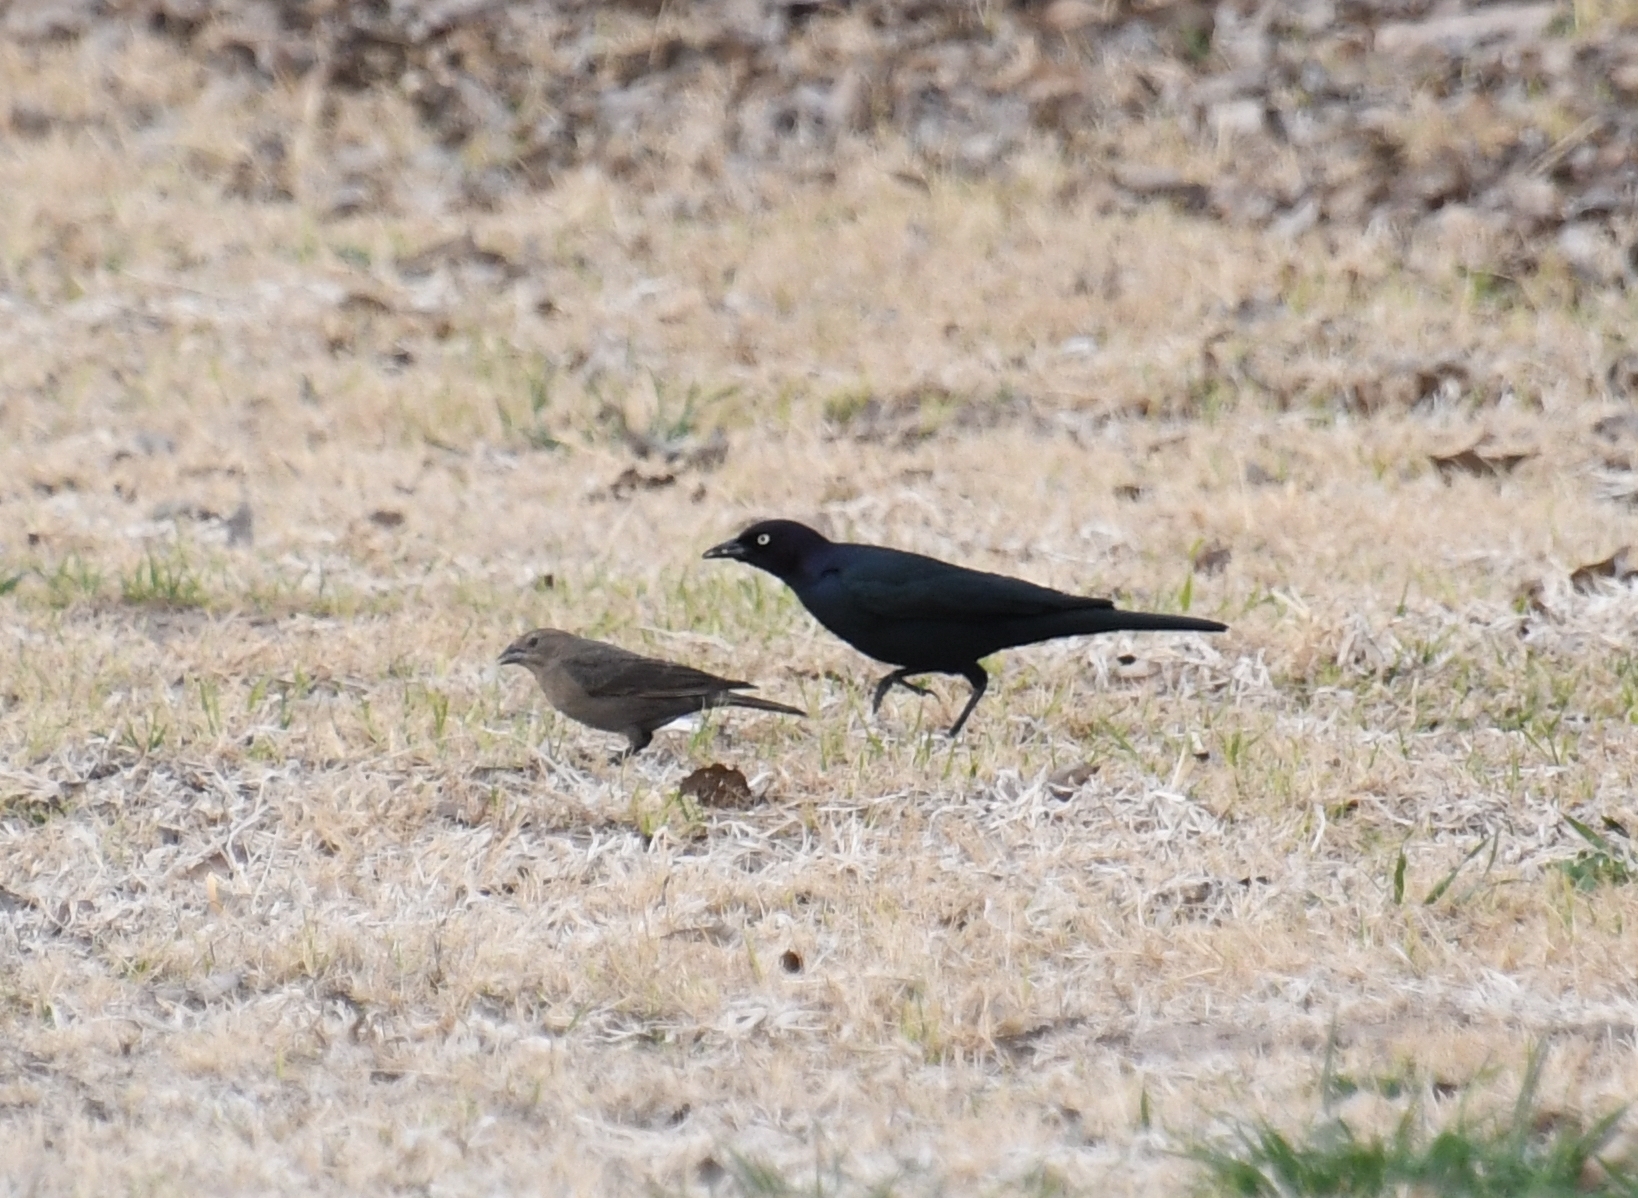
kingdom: Animalia
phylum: Chordata
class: Aves
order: Passeriformes
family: Icteridae
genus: Euphagus
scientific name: Euphagus cyanocephalus
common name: Brewer's blackbird
